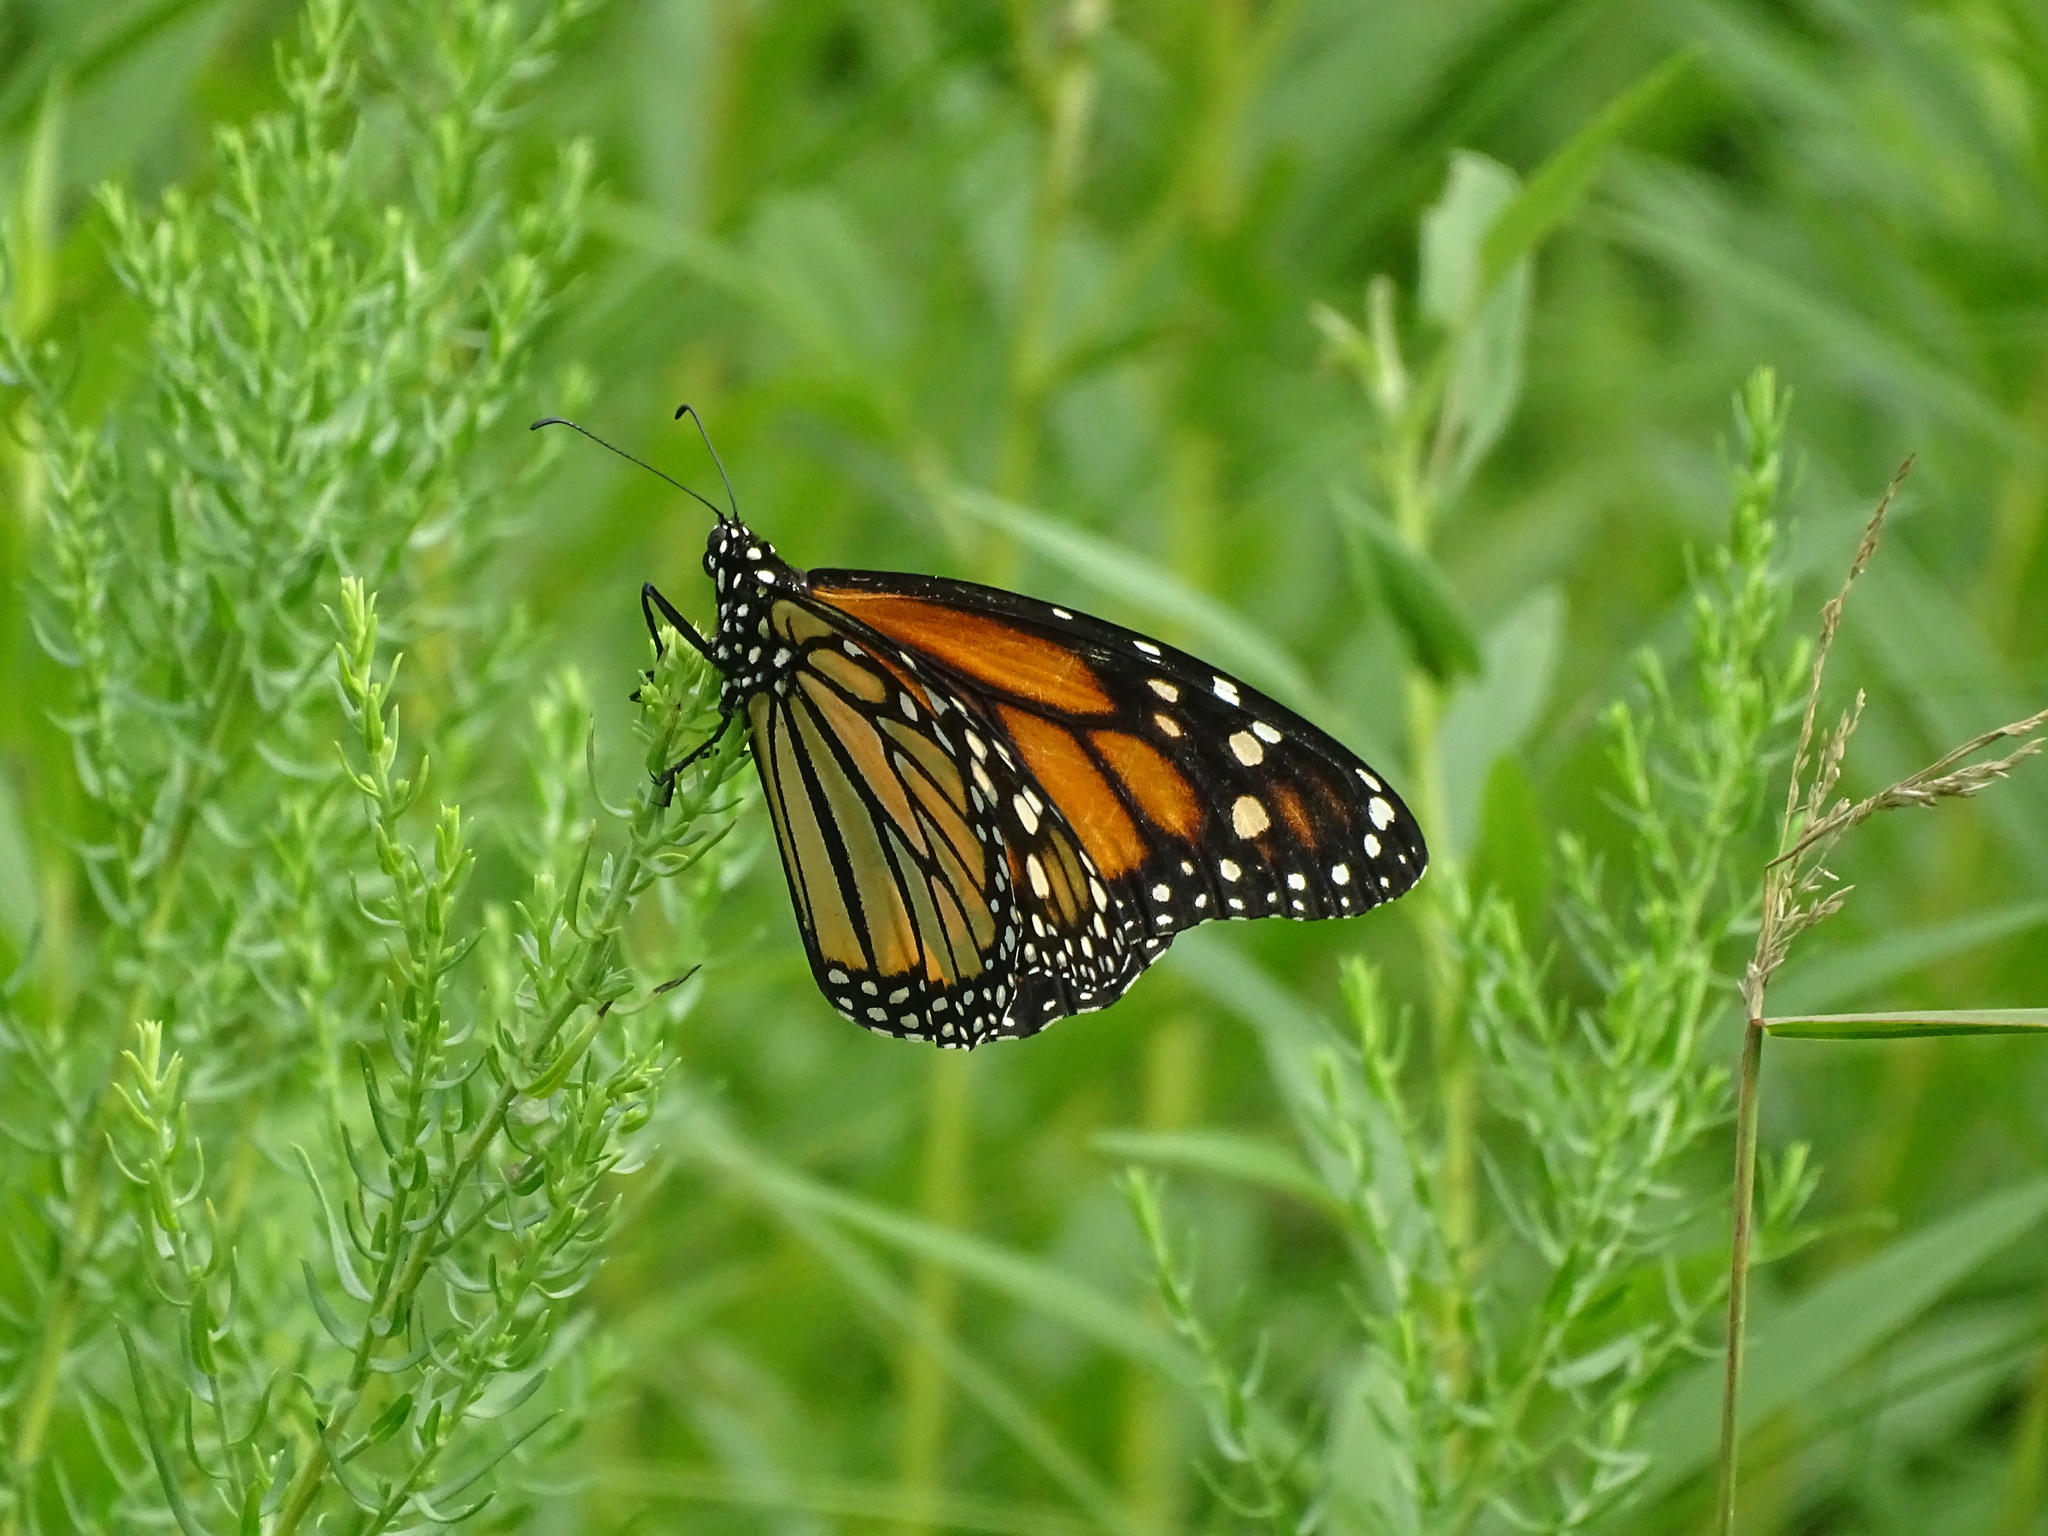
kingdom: Animalia
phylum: Arthropoda
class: Insecta
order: Lepidoptera
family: Nymphalidae
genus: Danaus
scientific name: Danaus plexippus
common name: Monarch
